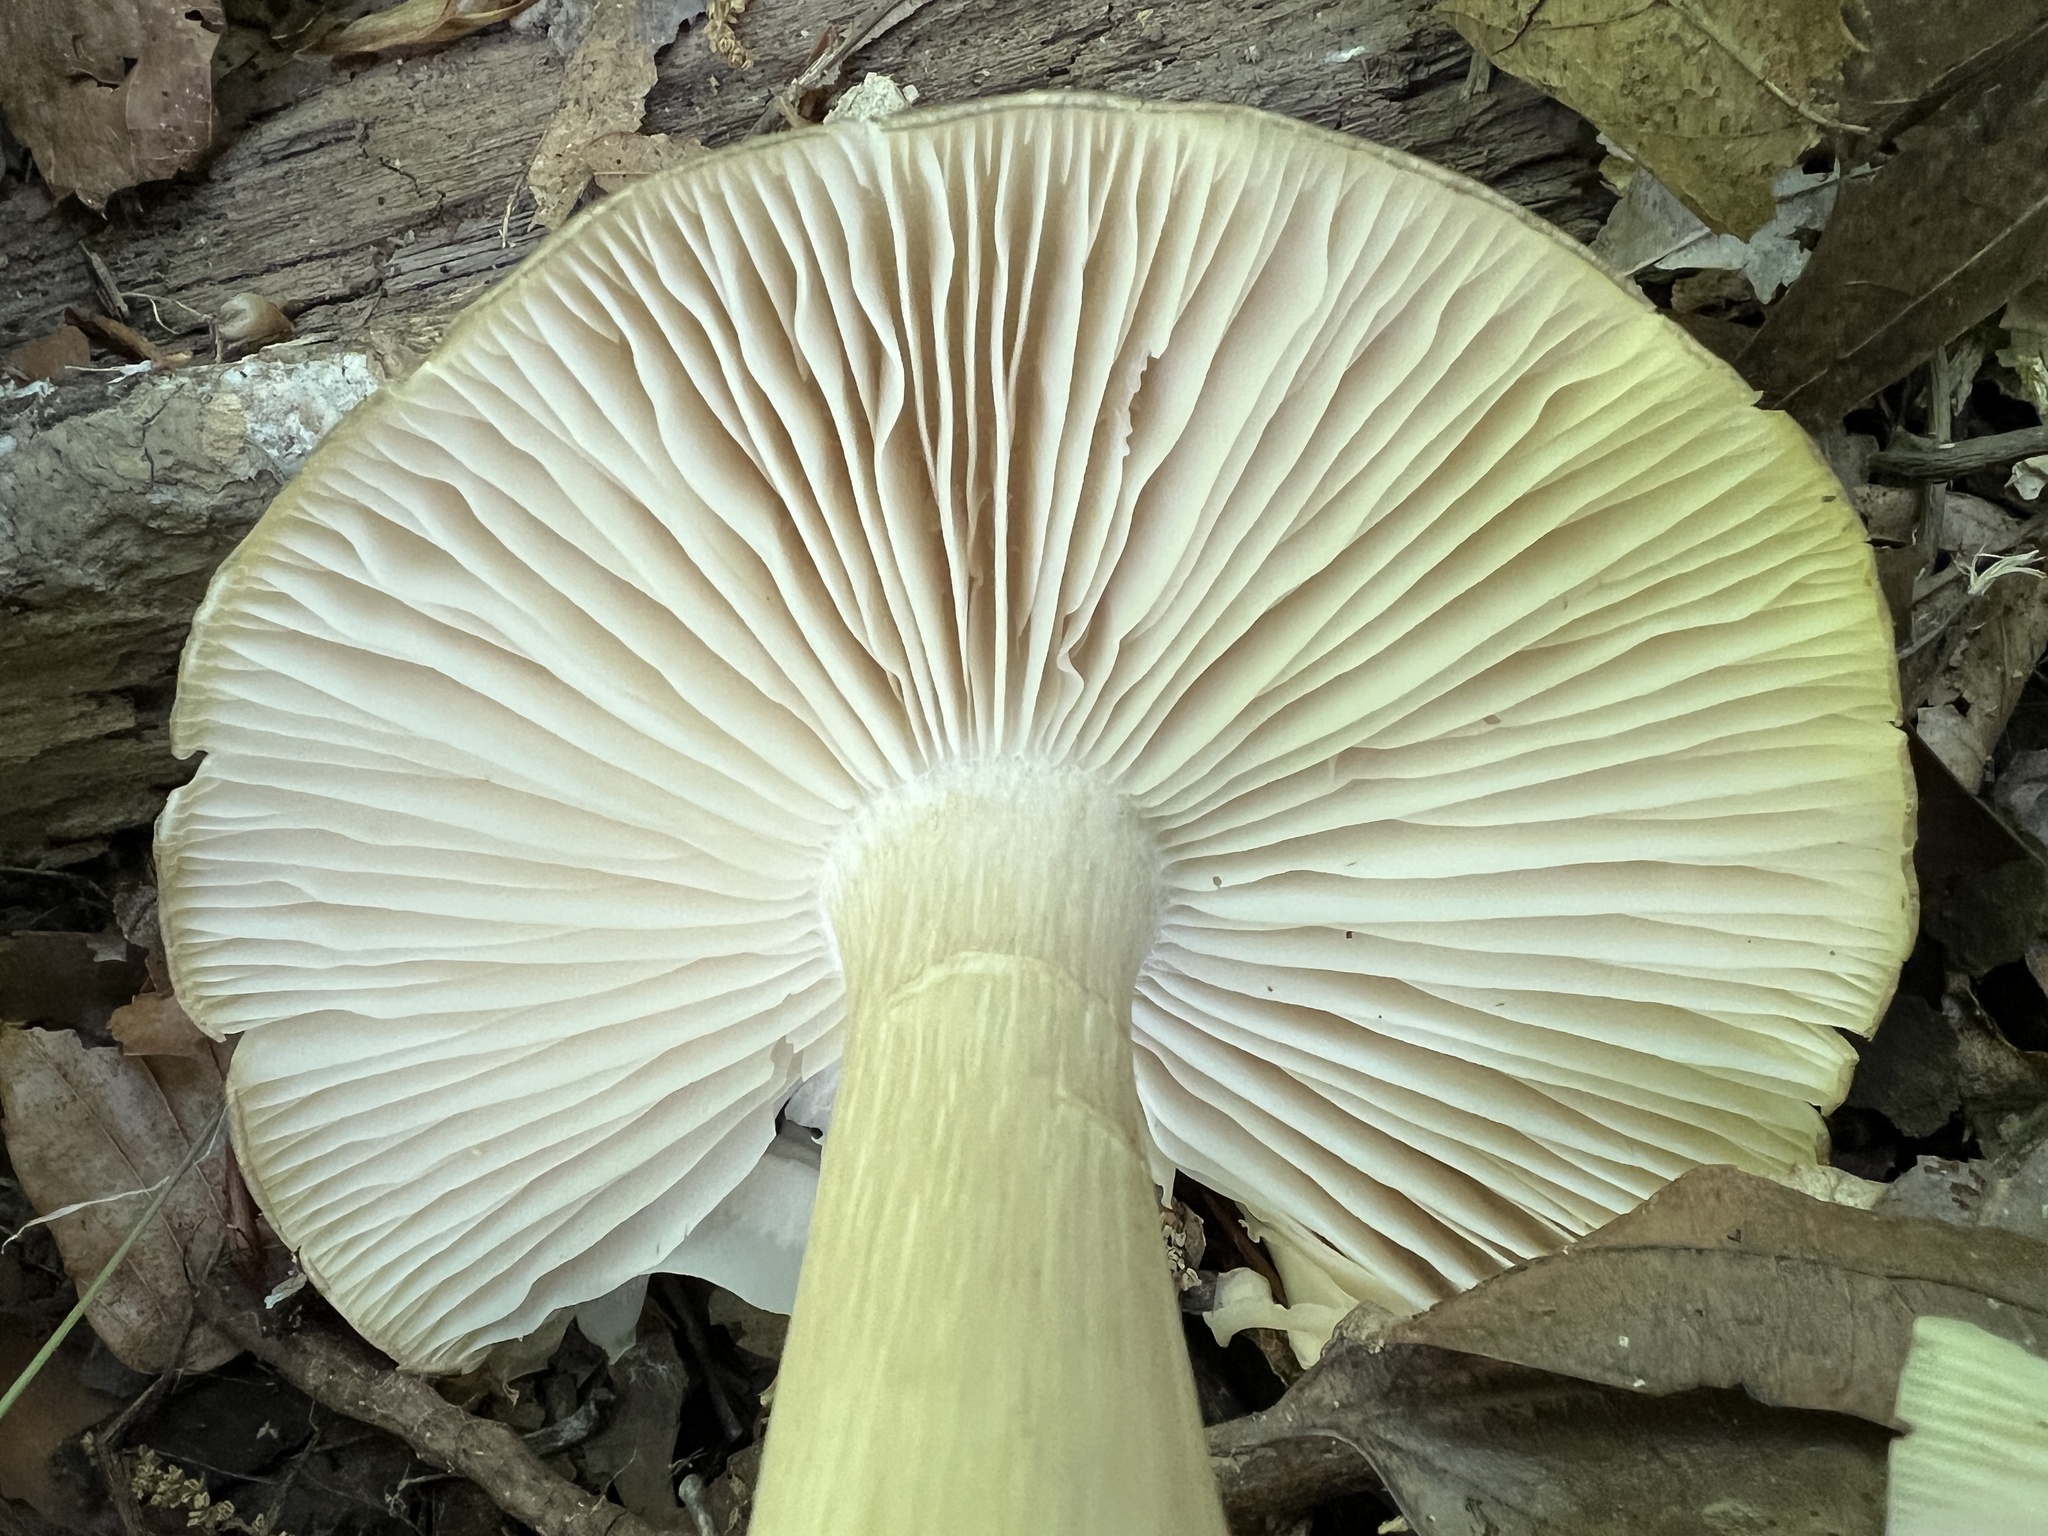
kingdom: Fungi
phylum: Basidiomycota
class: Agaricomycetes
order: Agaricales
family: Tricholomataceae
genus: Megacollybia
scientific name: Megacollybia rodmanii
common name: Eastern american platterful mushroom
